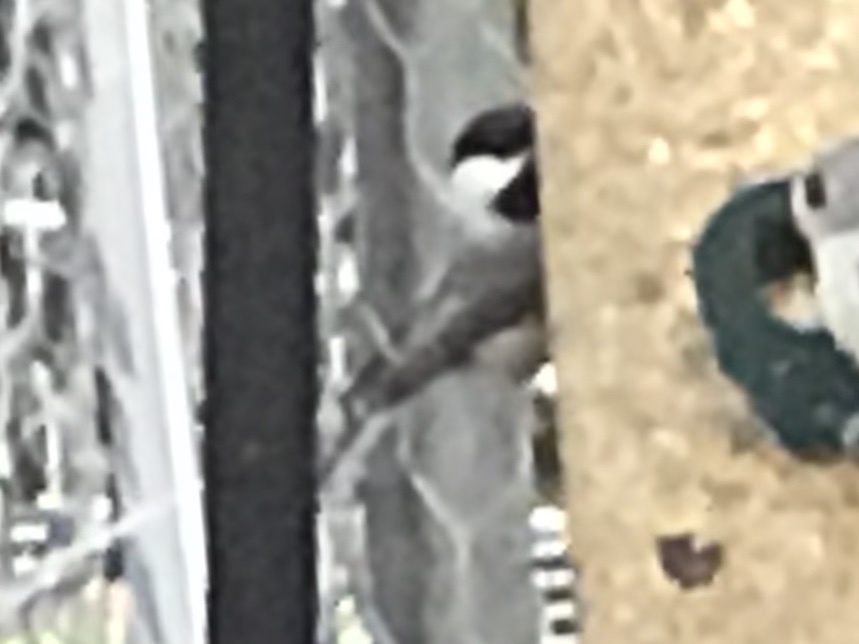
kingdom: Animalia
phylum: Chordata
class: Aves
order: Passeriformes
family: Paridae
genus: Poecile
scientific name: Poecile carolinensis
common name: Carolina chickadee
